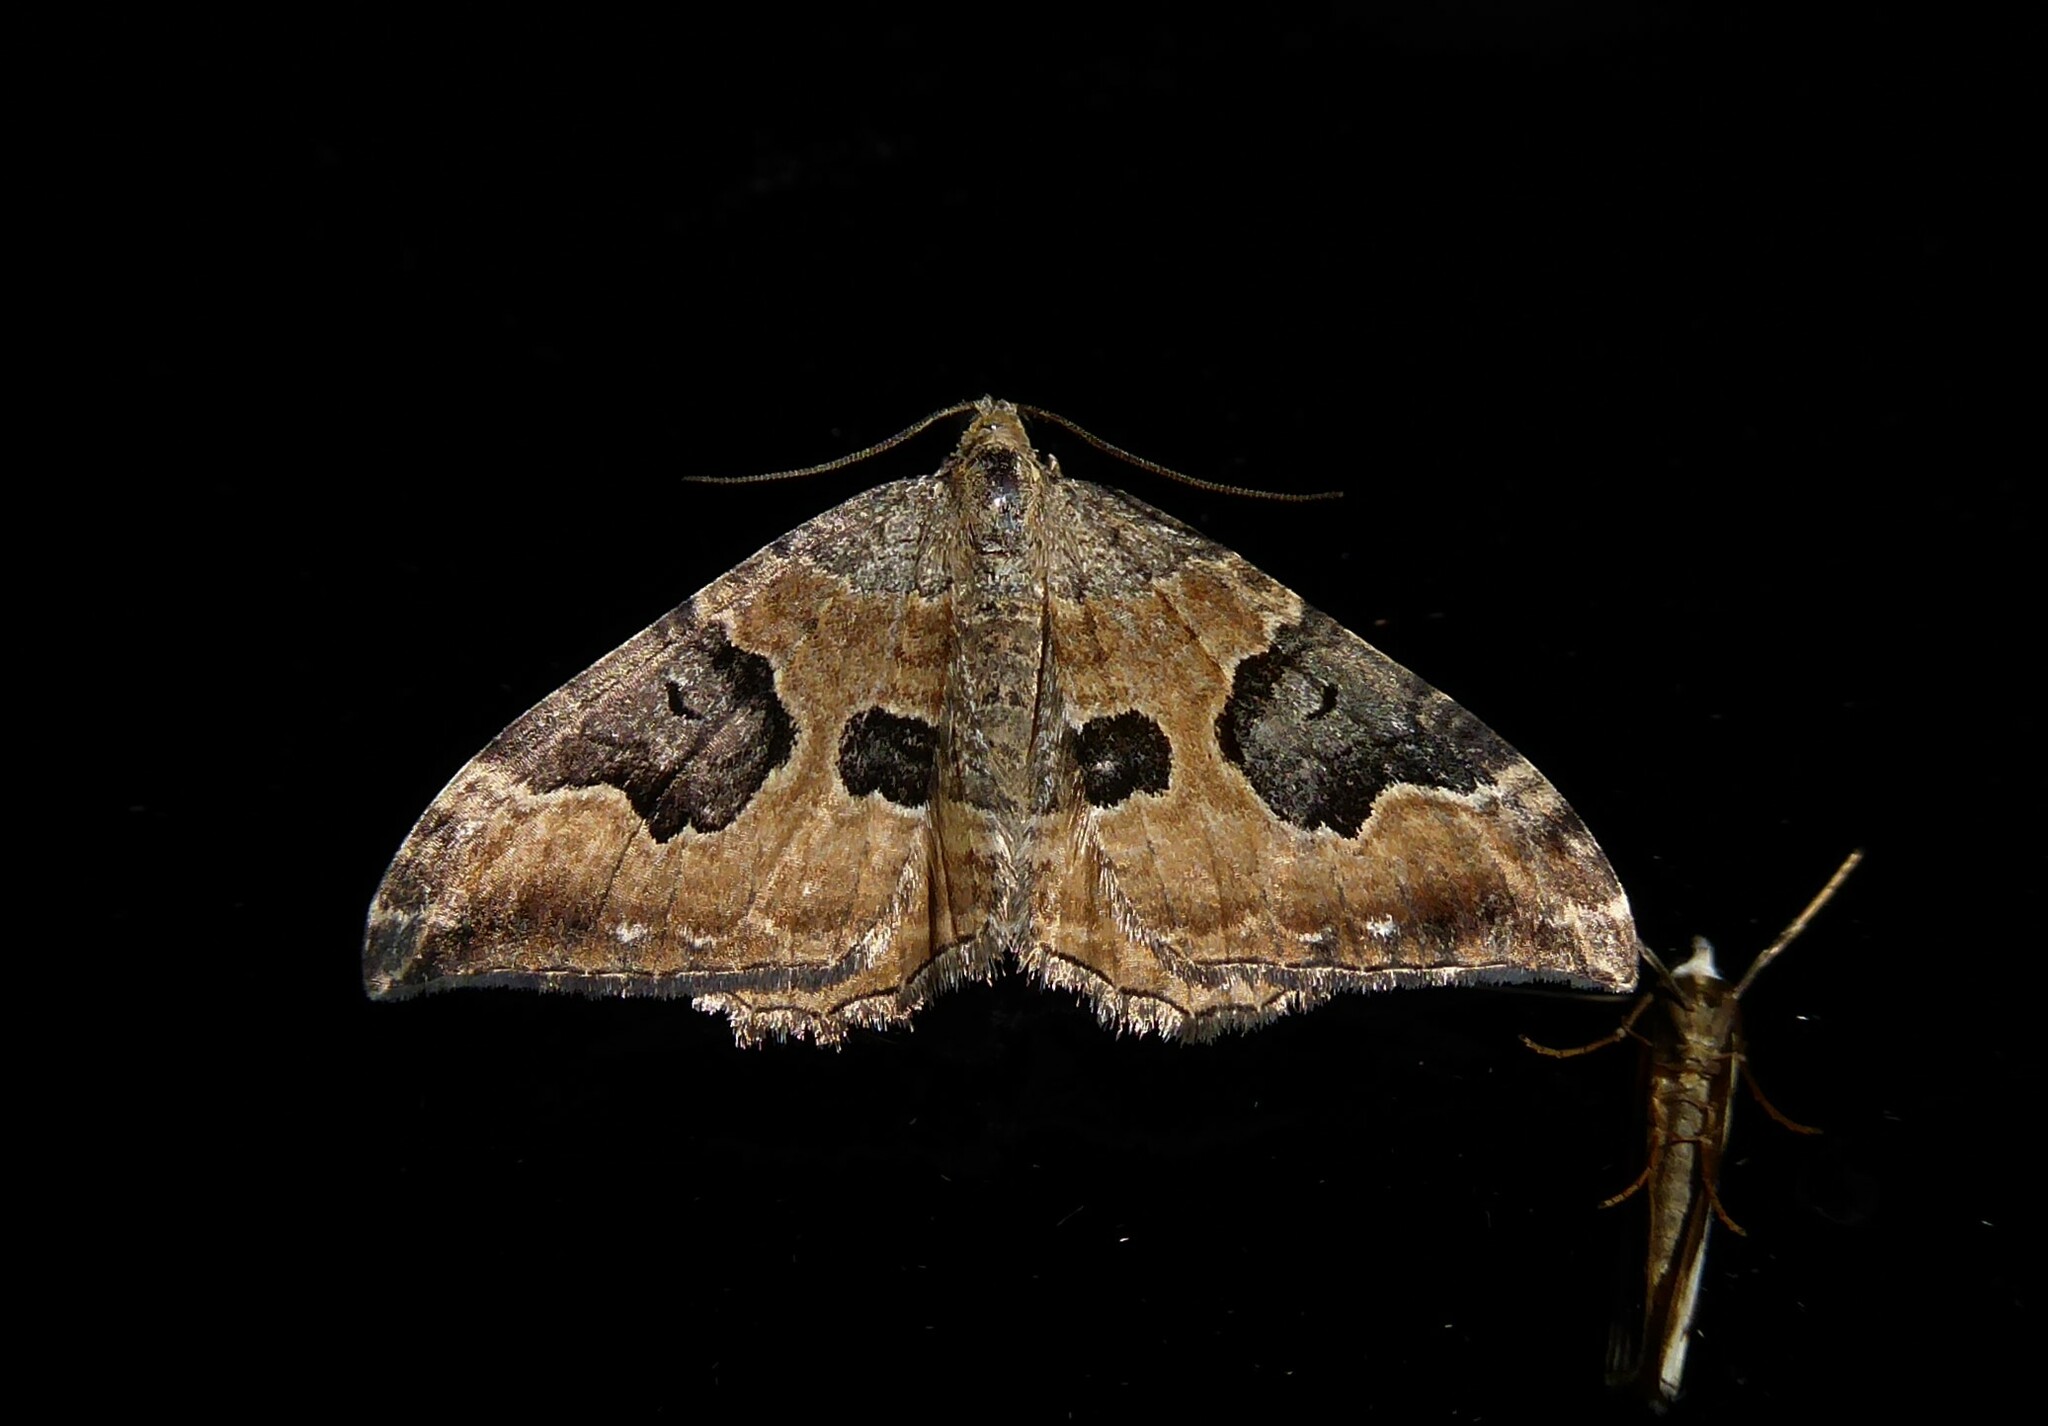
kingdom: Animalia
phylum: Arthropoda
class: Insecta
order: Lepidoptera
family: Geometridae
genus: Hydriomena
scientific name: Hydriomena deltoidata
